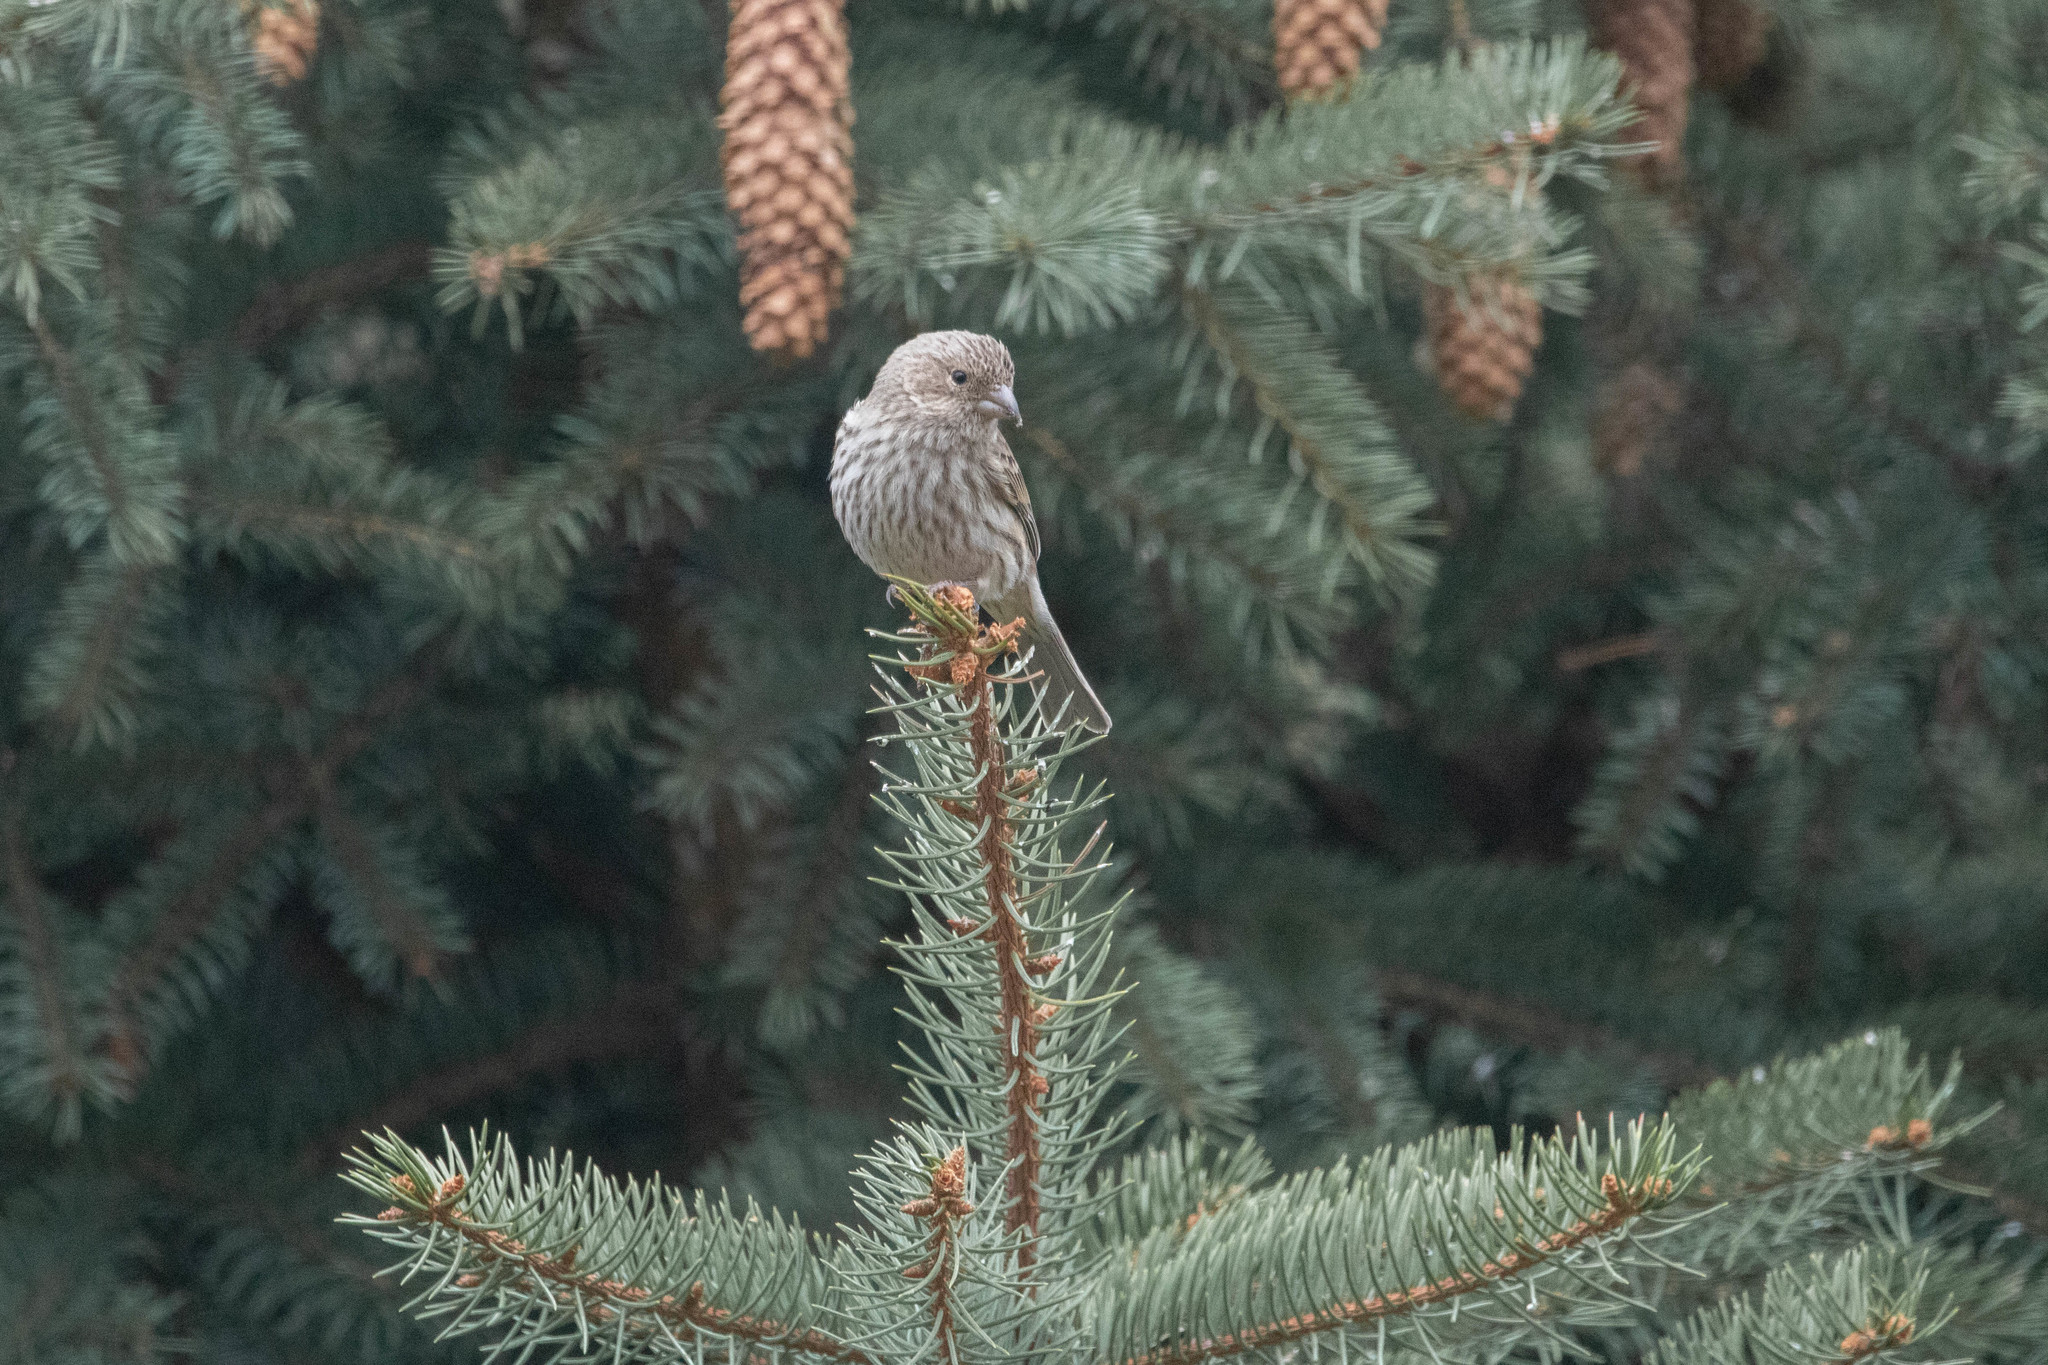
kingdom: Animalia
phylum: Chordata
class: Aves
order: Passeriformes
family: Fringillidae
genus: Haemorhous
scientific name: Haemorhous mexicanus
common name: House finch
